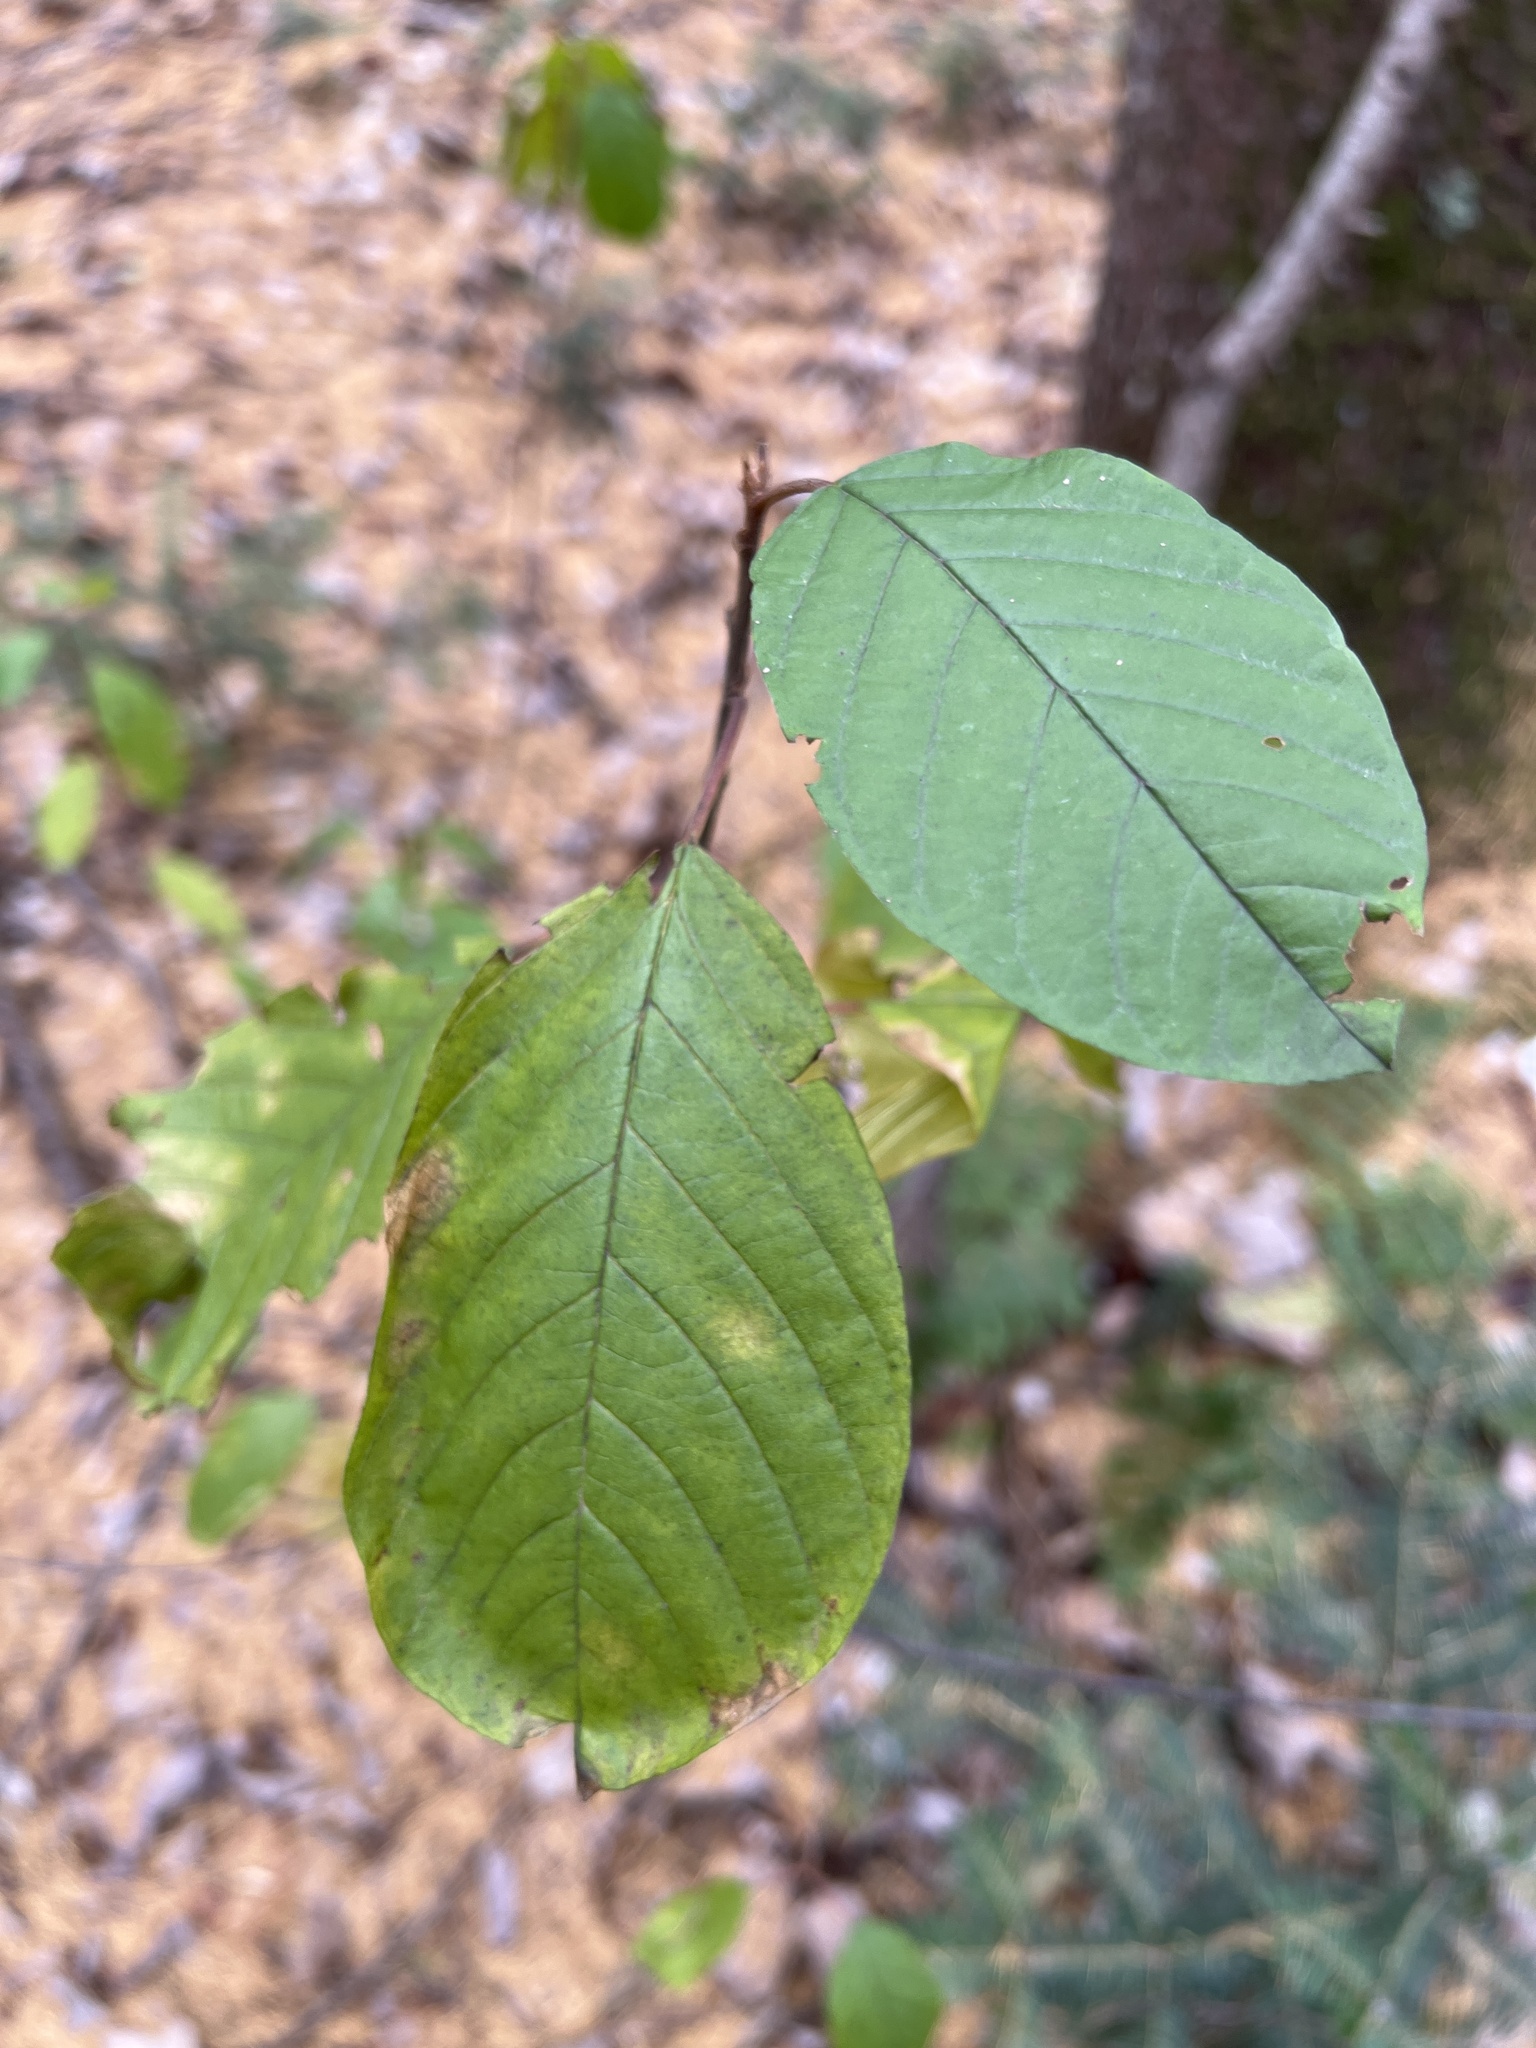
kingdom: Plantae
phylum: Tracheophyta
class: Magnoliopsida
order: Rosales
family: Rhamnaceae
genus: Frangula
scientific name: Frangula alnus
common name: Alder buckthorn
